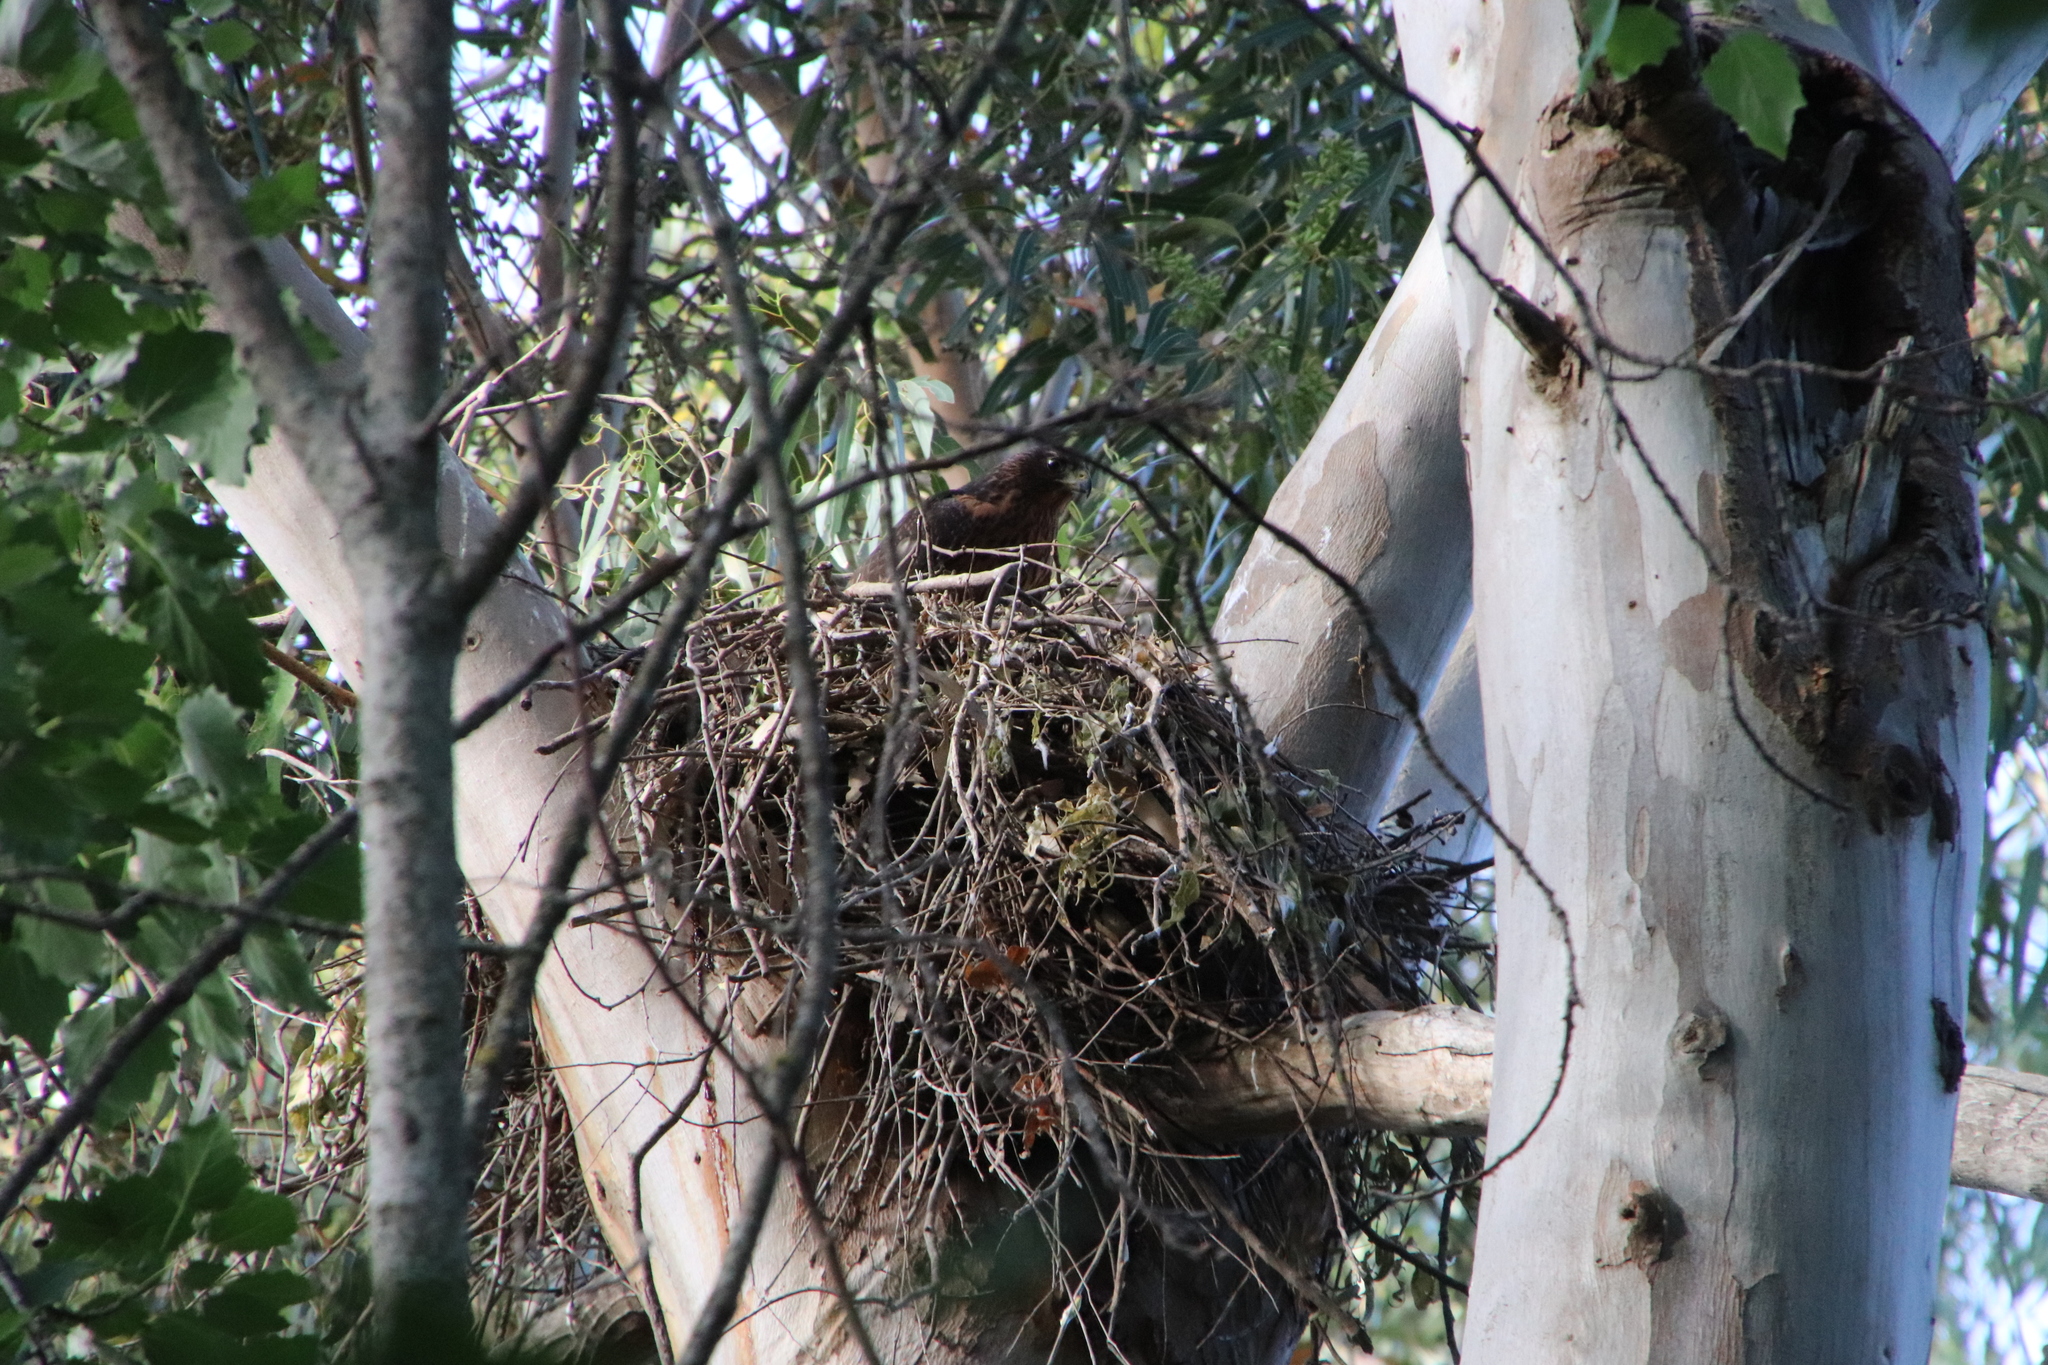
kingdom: Animalia
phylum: Chordata
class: Aves
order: Accipitriformes
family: Accipitridae
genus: Accipiter
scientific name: Accipiter melanoleucus
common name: Black sparrowhawk
